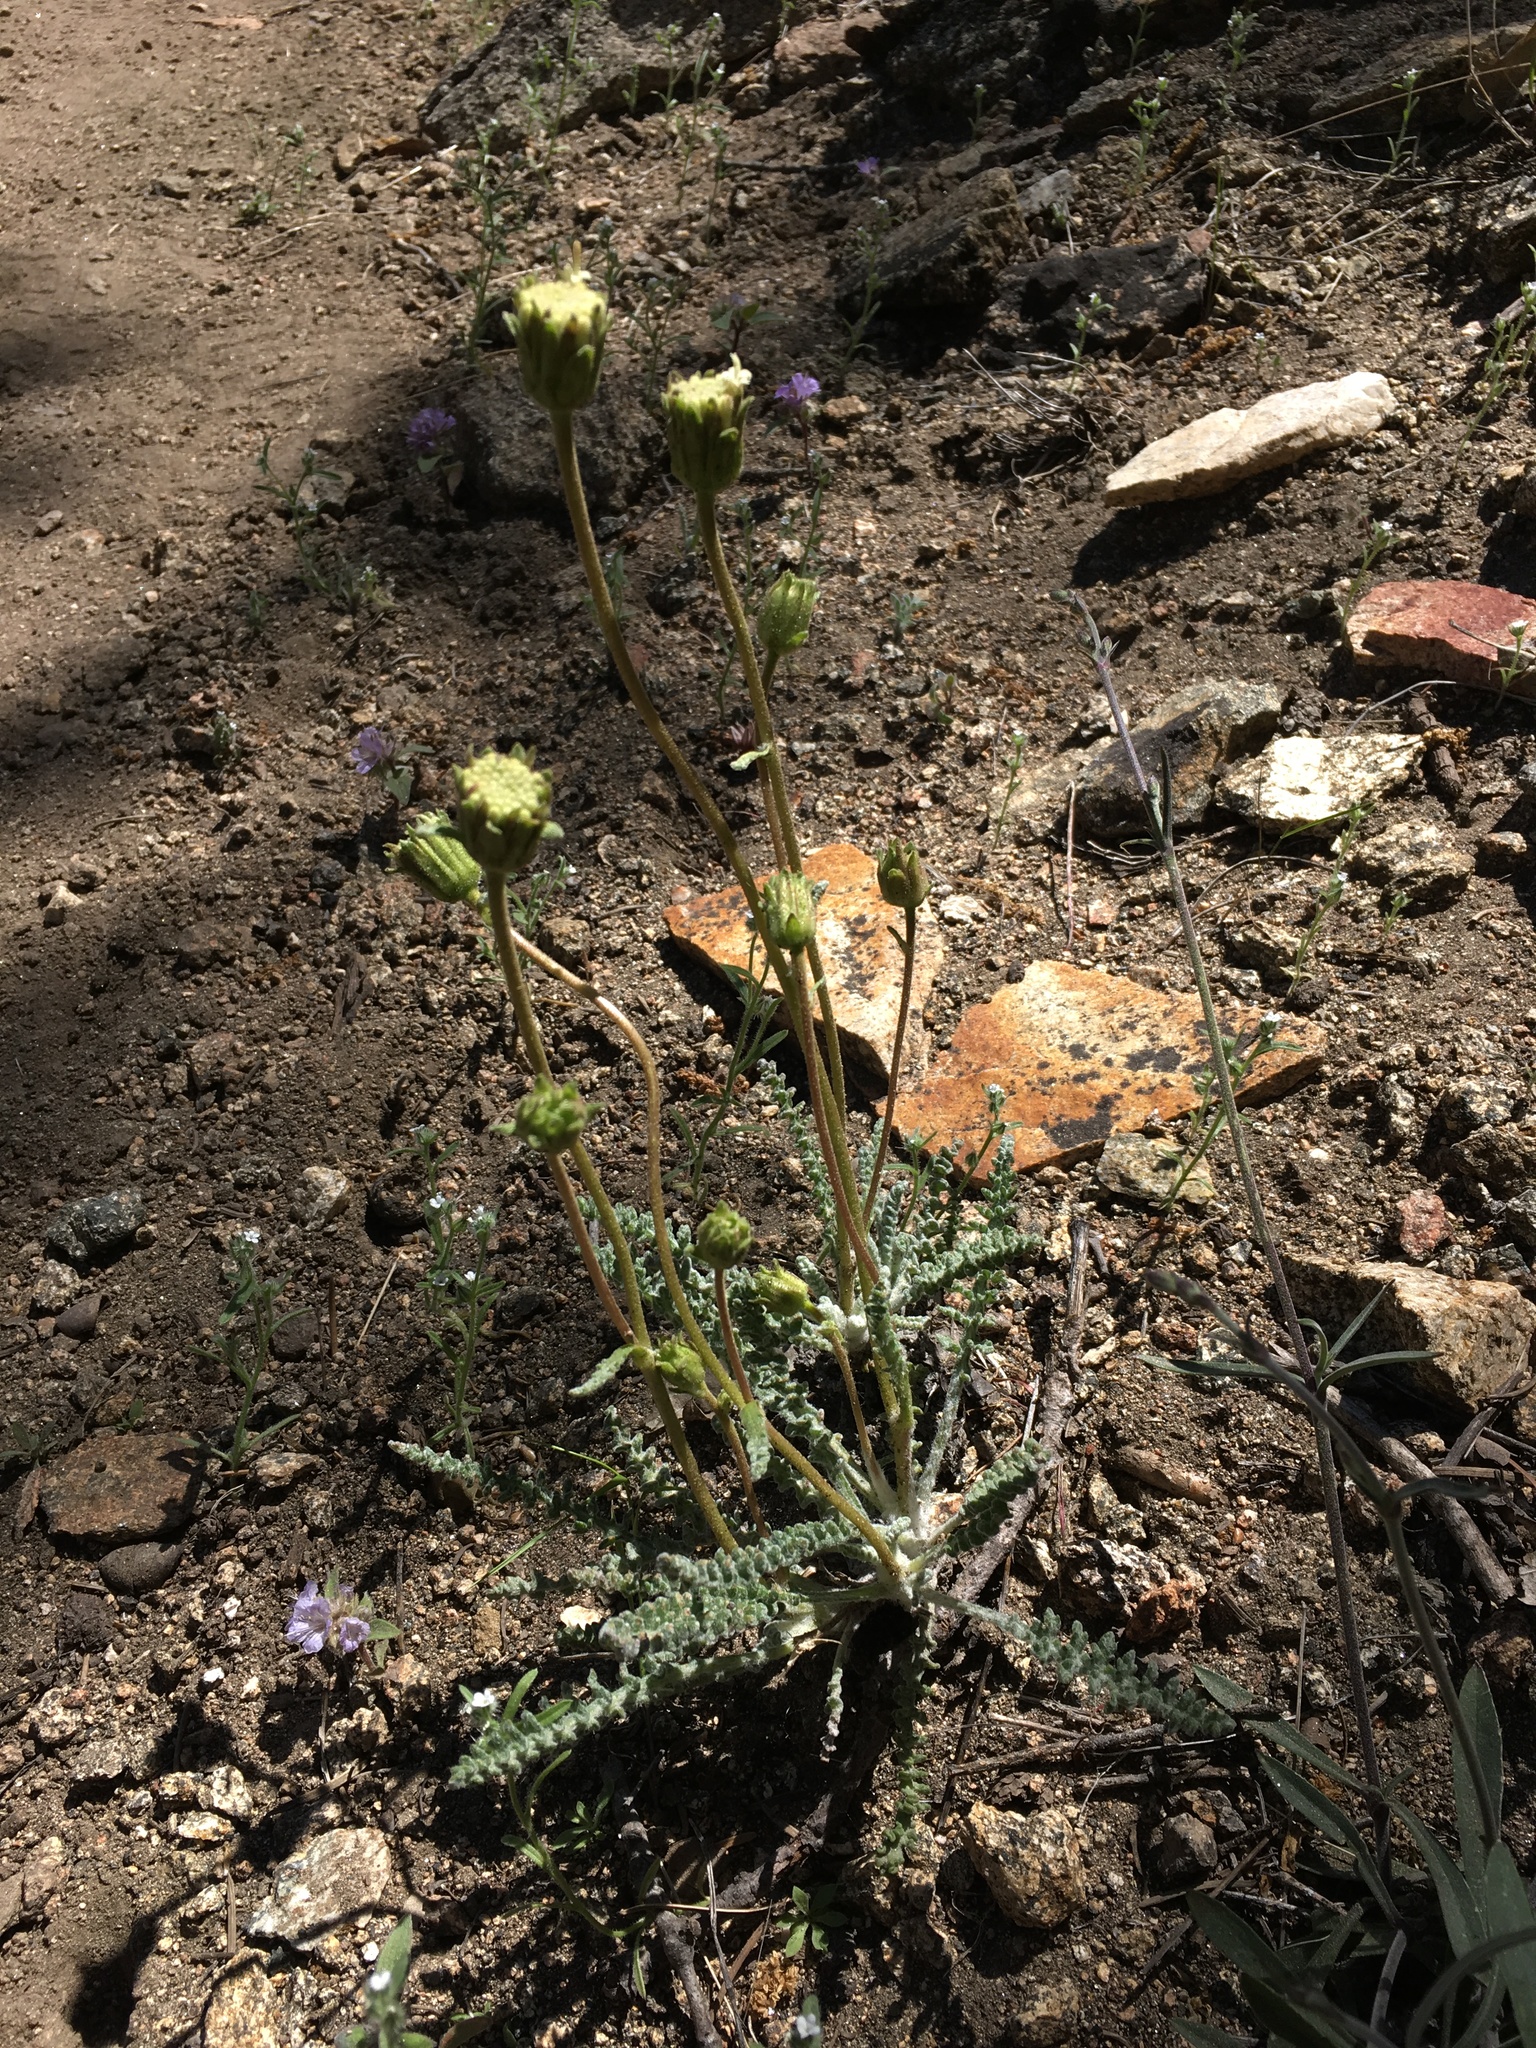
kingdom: Plantae
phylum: Tracheophyta
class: Magnoliopsida
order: Asterales
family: Asteraceae
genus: Chaenactis
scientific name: Chaenactis santolinoides
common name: Santolina pincushion
